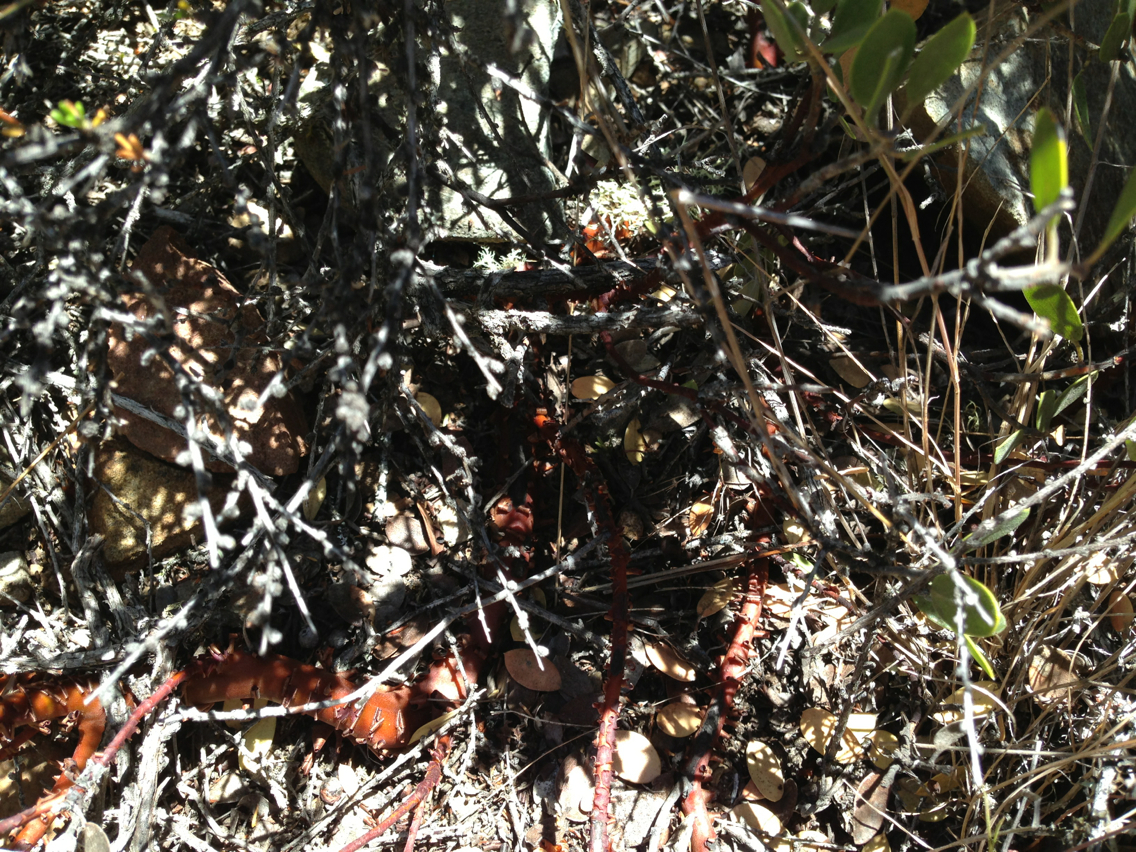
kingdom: Plantae
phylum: Tracheophyta
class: Magnoliopsida
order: Ericales
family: Ericaceae
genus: Arctostaphylos
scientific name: Arctostaphylos montana
